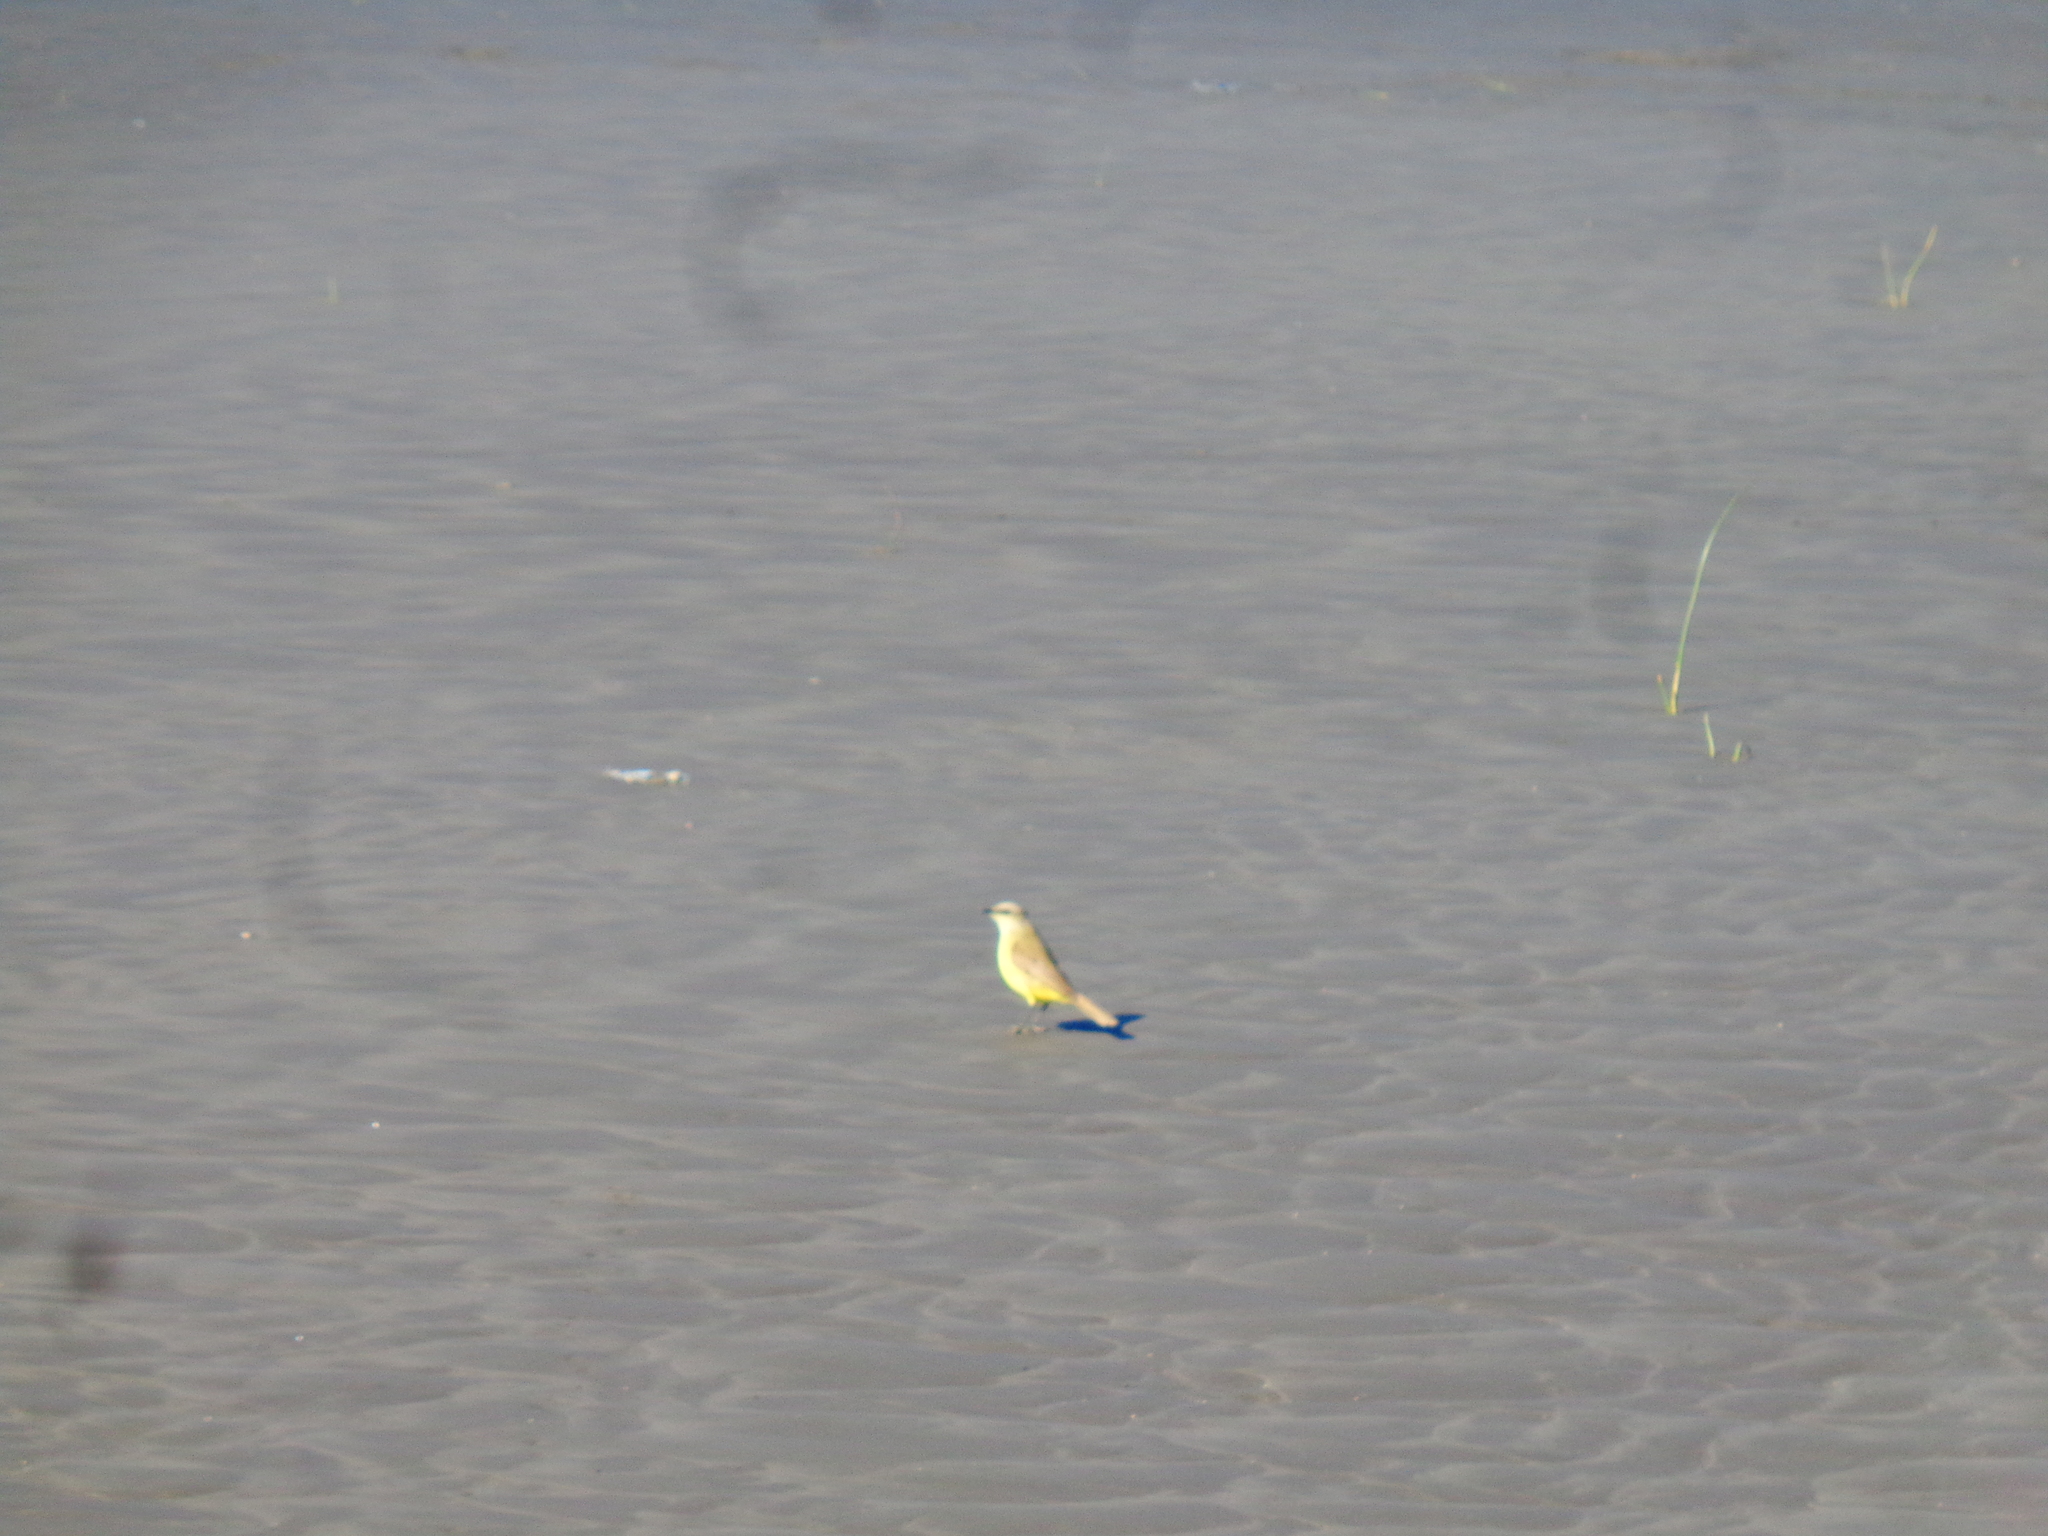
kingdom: Animalia
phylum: Chordata
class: Aves
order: Passeriformes
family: Tyrannidae
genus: Machetornis
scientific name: Machetornis rixosa
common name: Cattle tyrant
